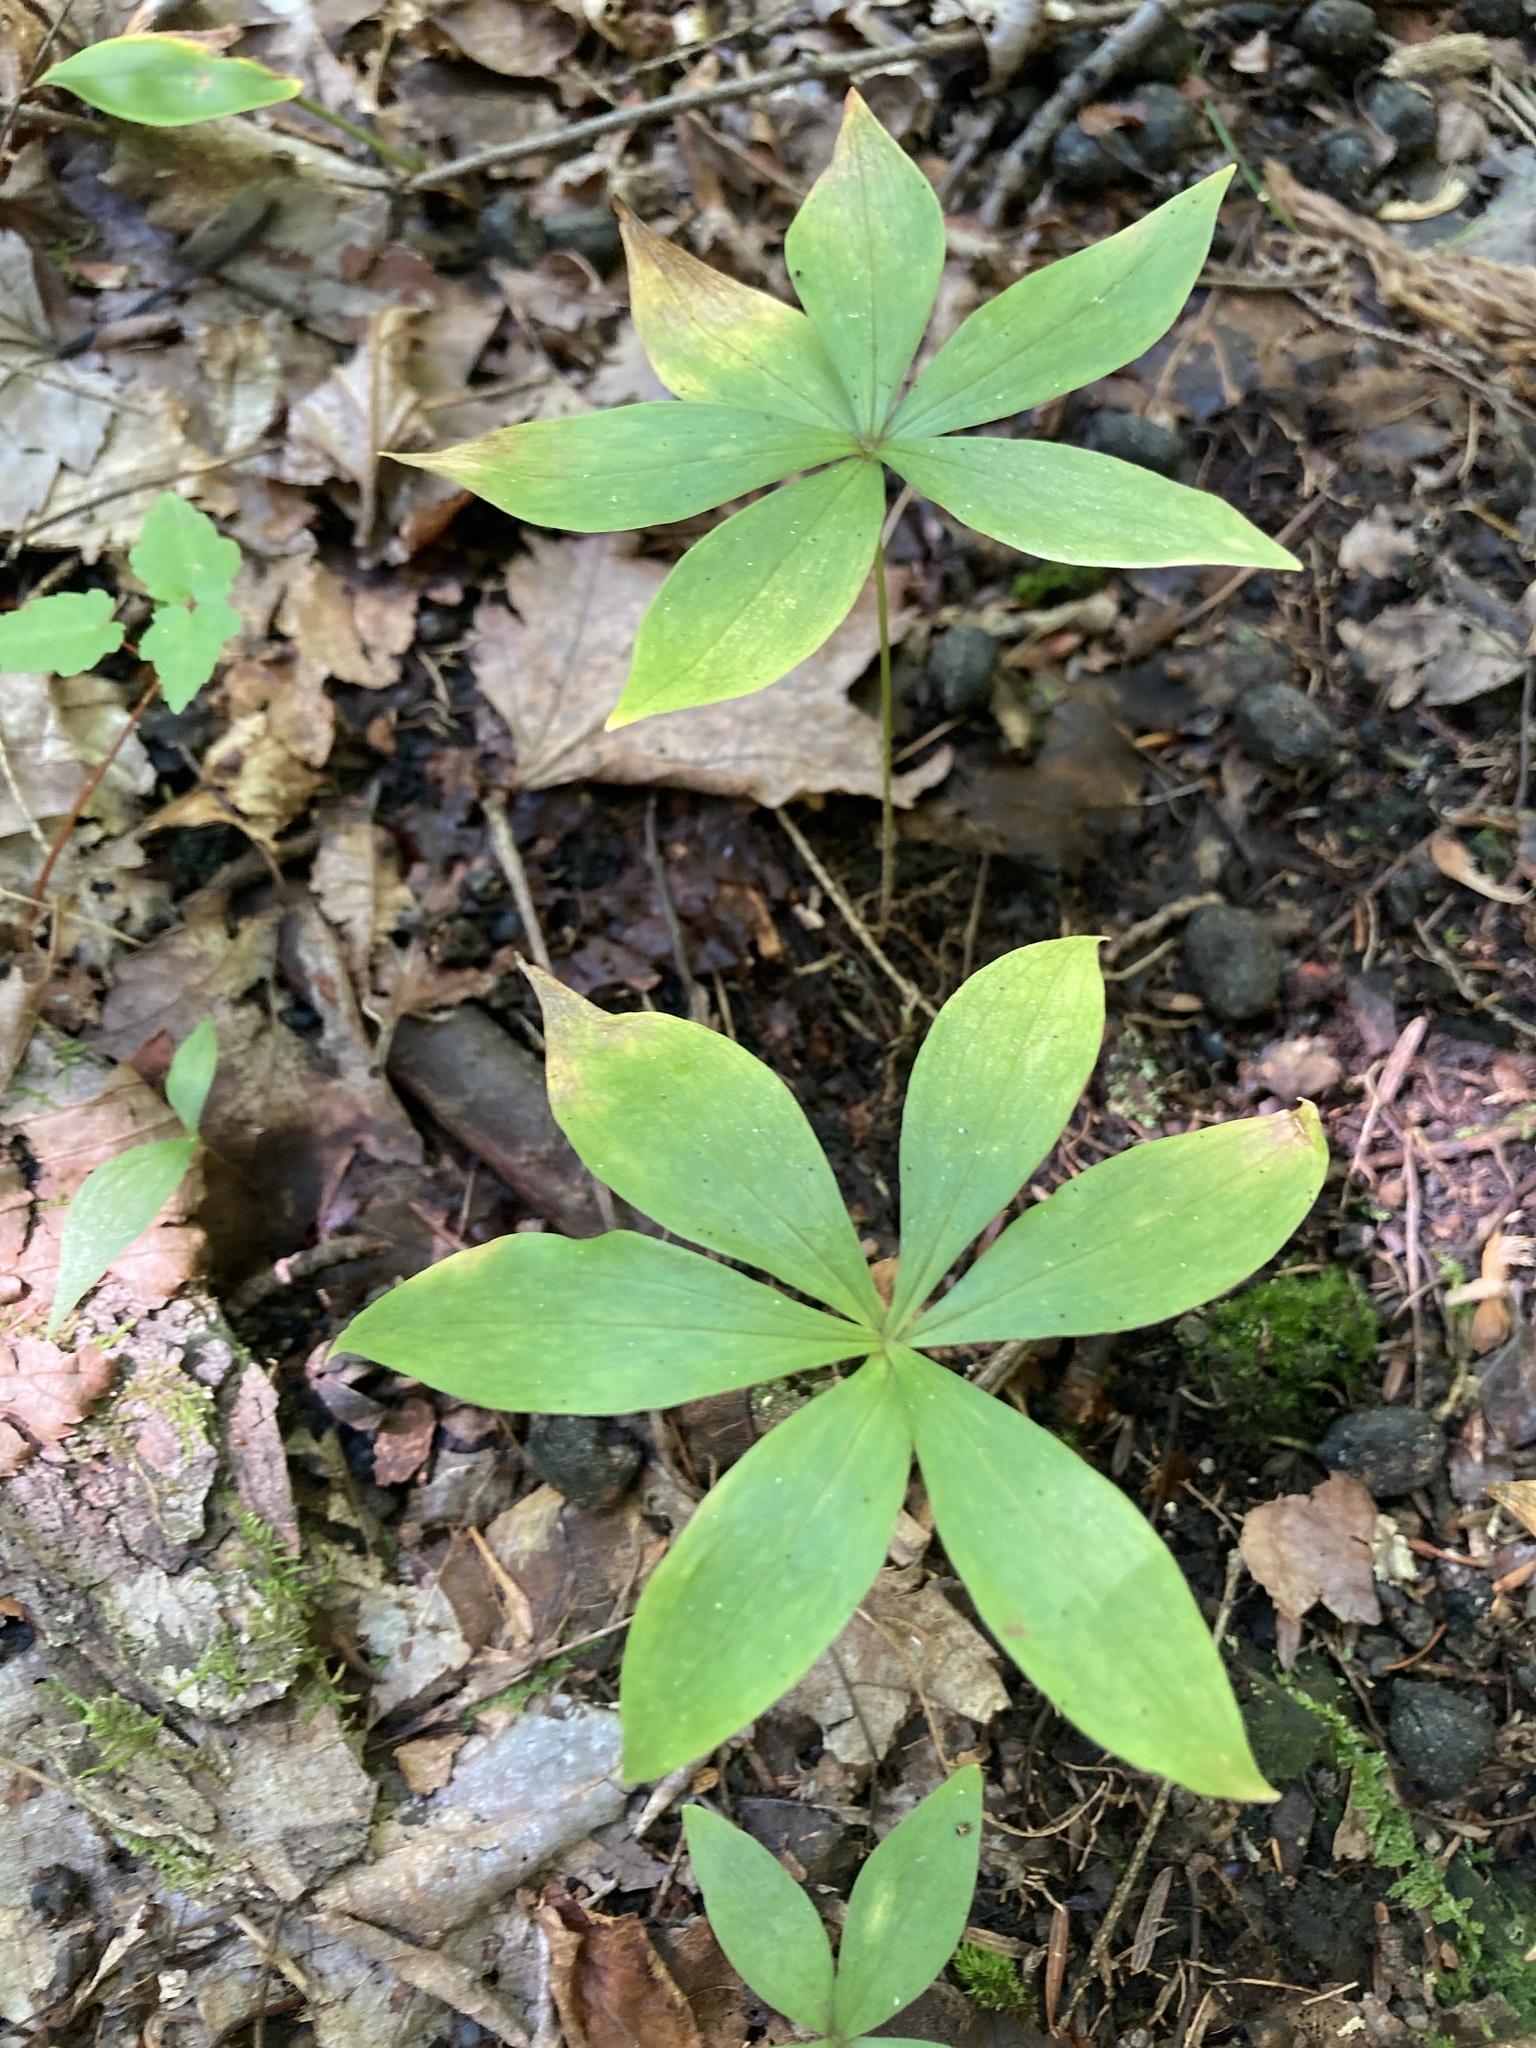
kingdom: Plantae
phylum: Tracheophyta
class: Liliopsida
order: Liliales
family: Liliaceae
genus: Medeola
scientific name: Medeola virginiana
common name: Indian cucumber-root
